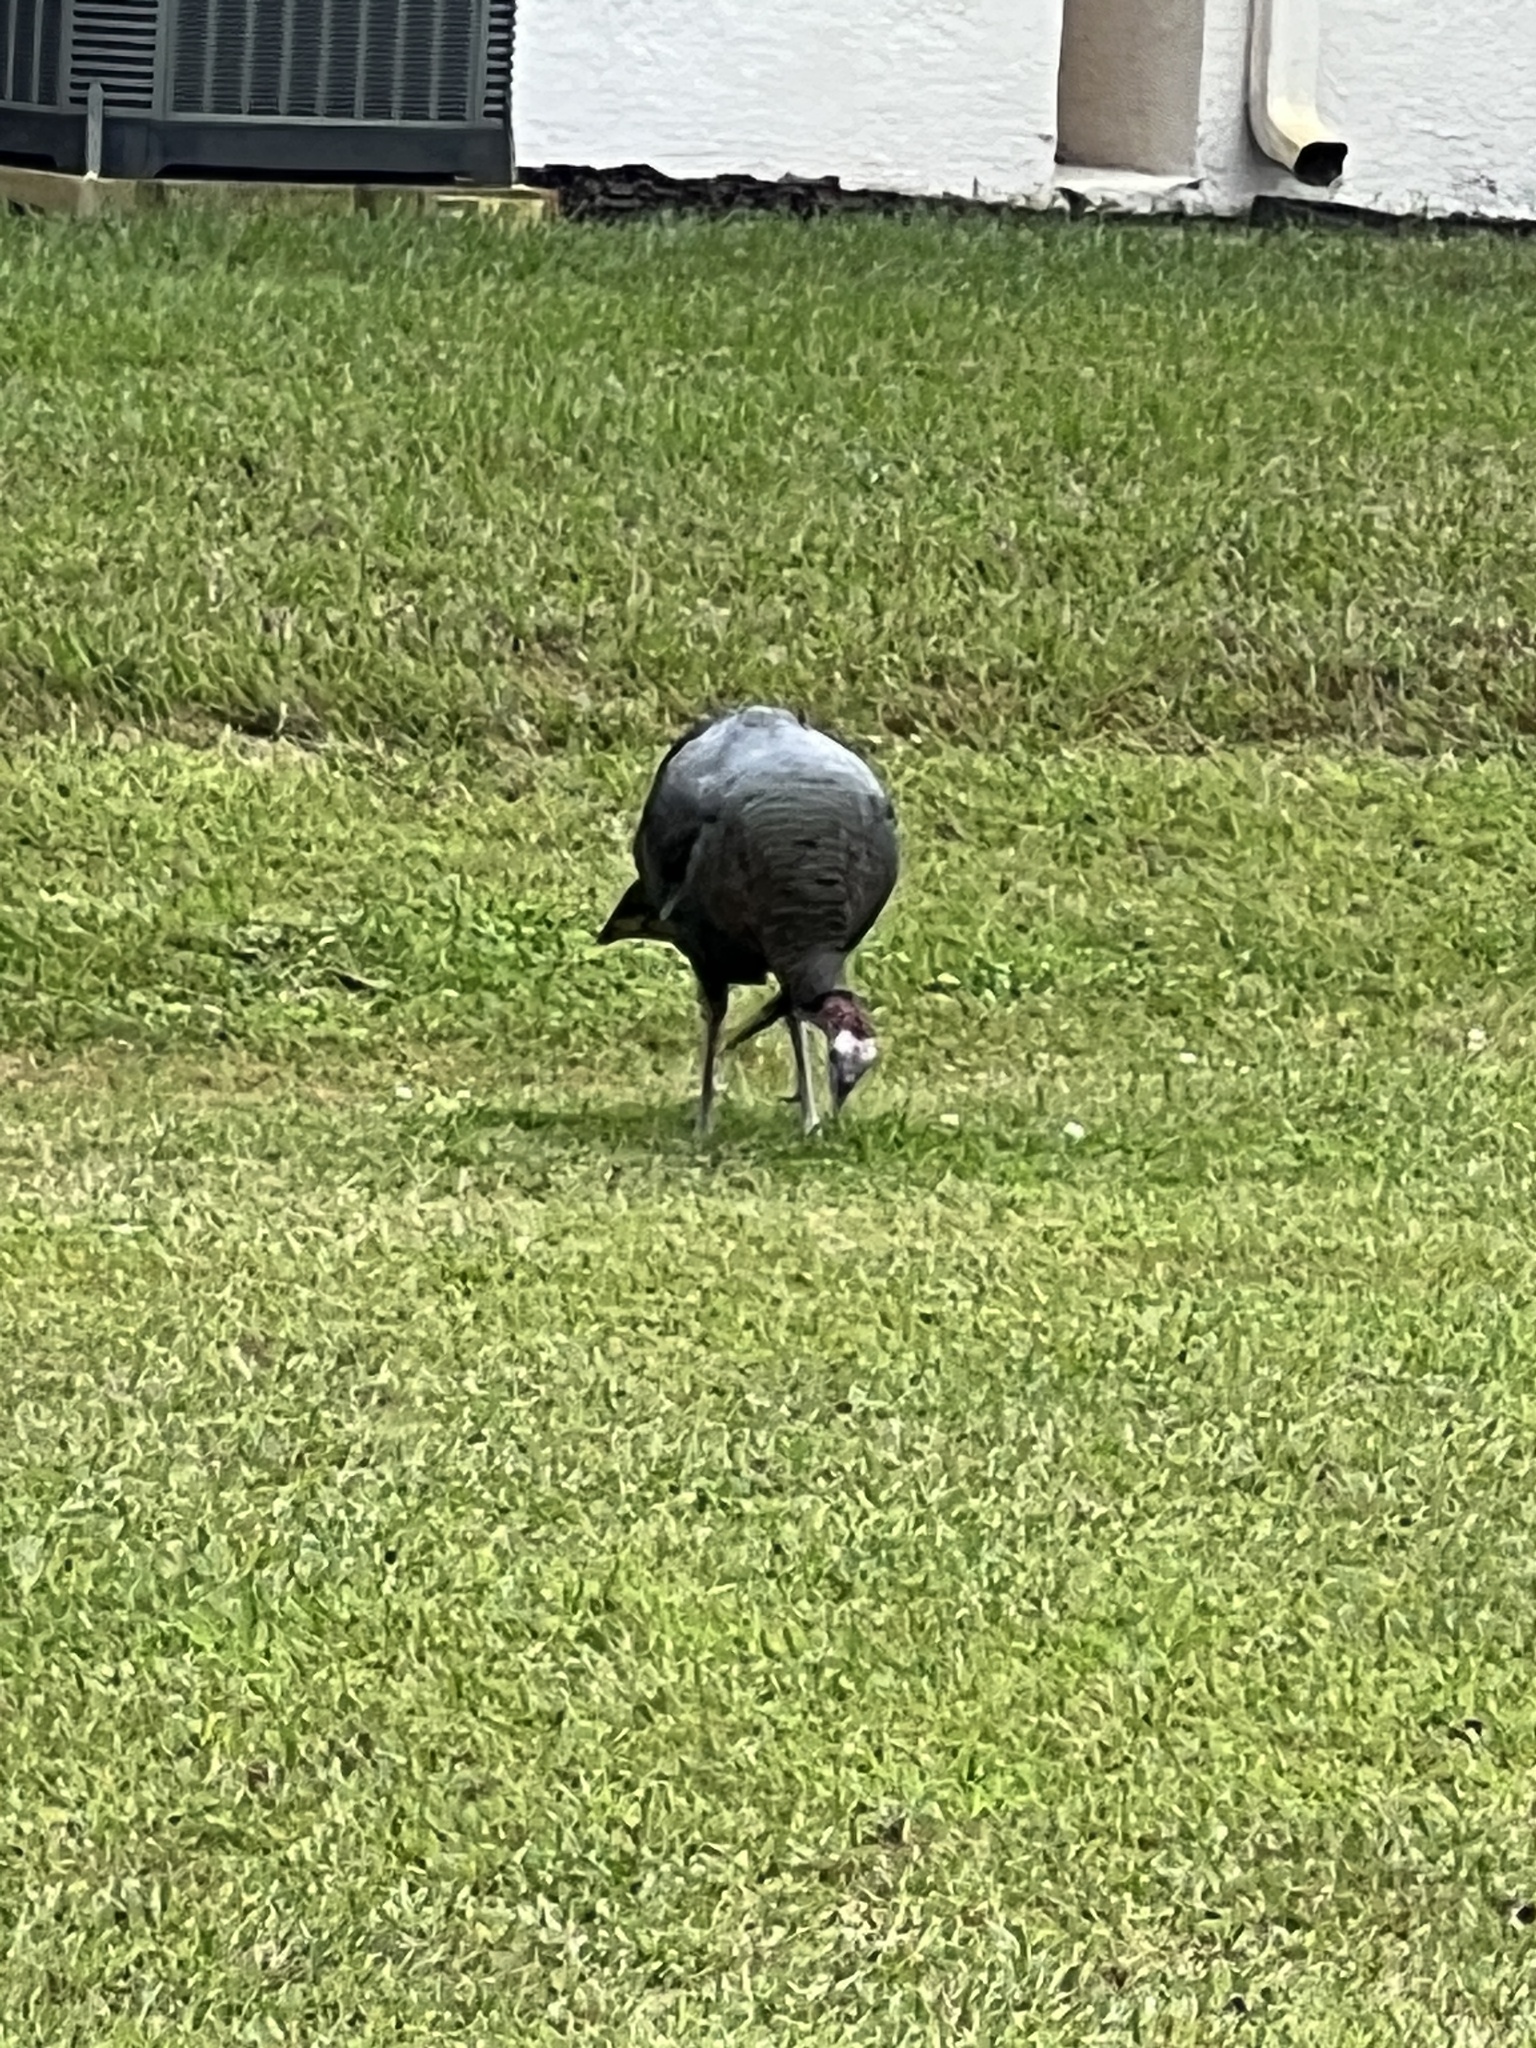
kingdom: Animalia
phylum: Chordata
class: Aves
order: Galliformes
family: Phasianidae
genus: Meleagris
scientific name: Meleagris gallopavo
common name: Wild turkey
